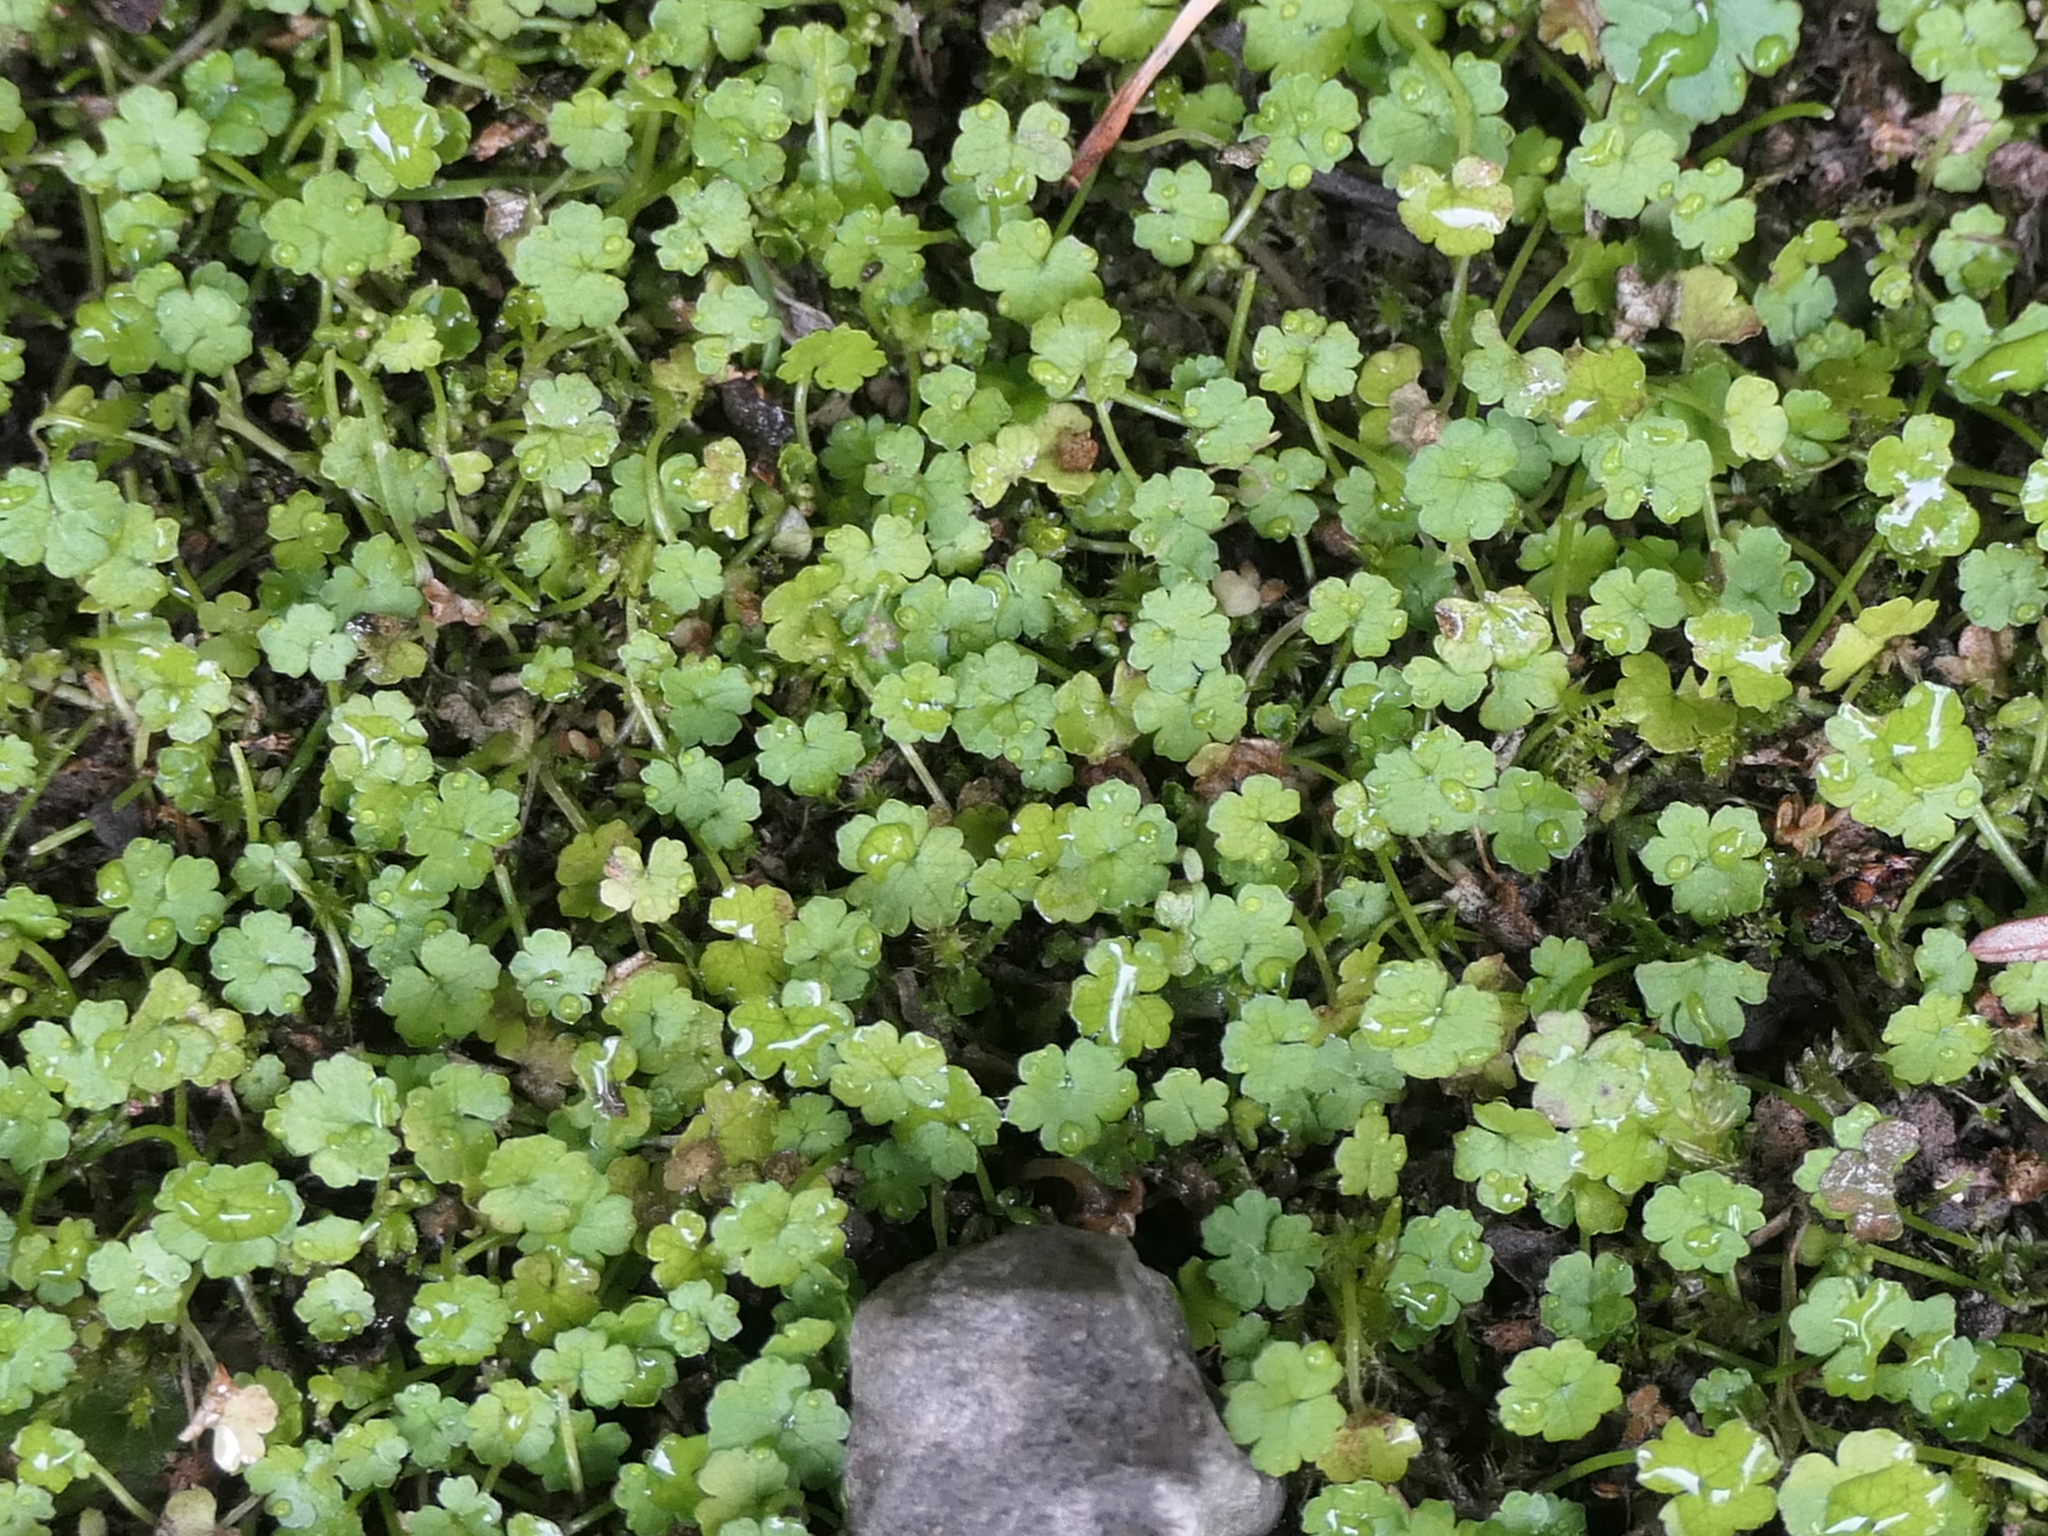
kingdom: Plantae
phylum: Tracheophyta
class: Magnoliopsida
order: Apiales
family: Araliaceae
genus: Hydrocotyle
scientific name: Hydrocotyle heteromeria
